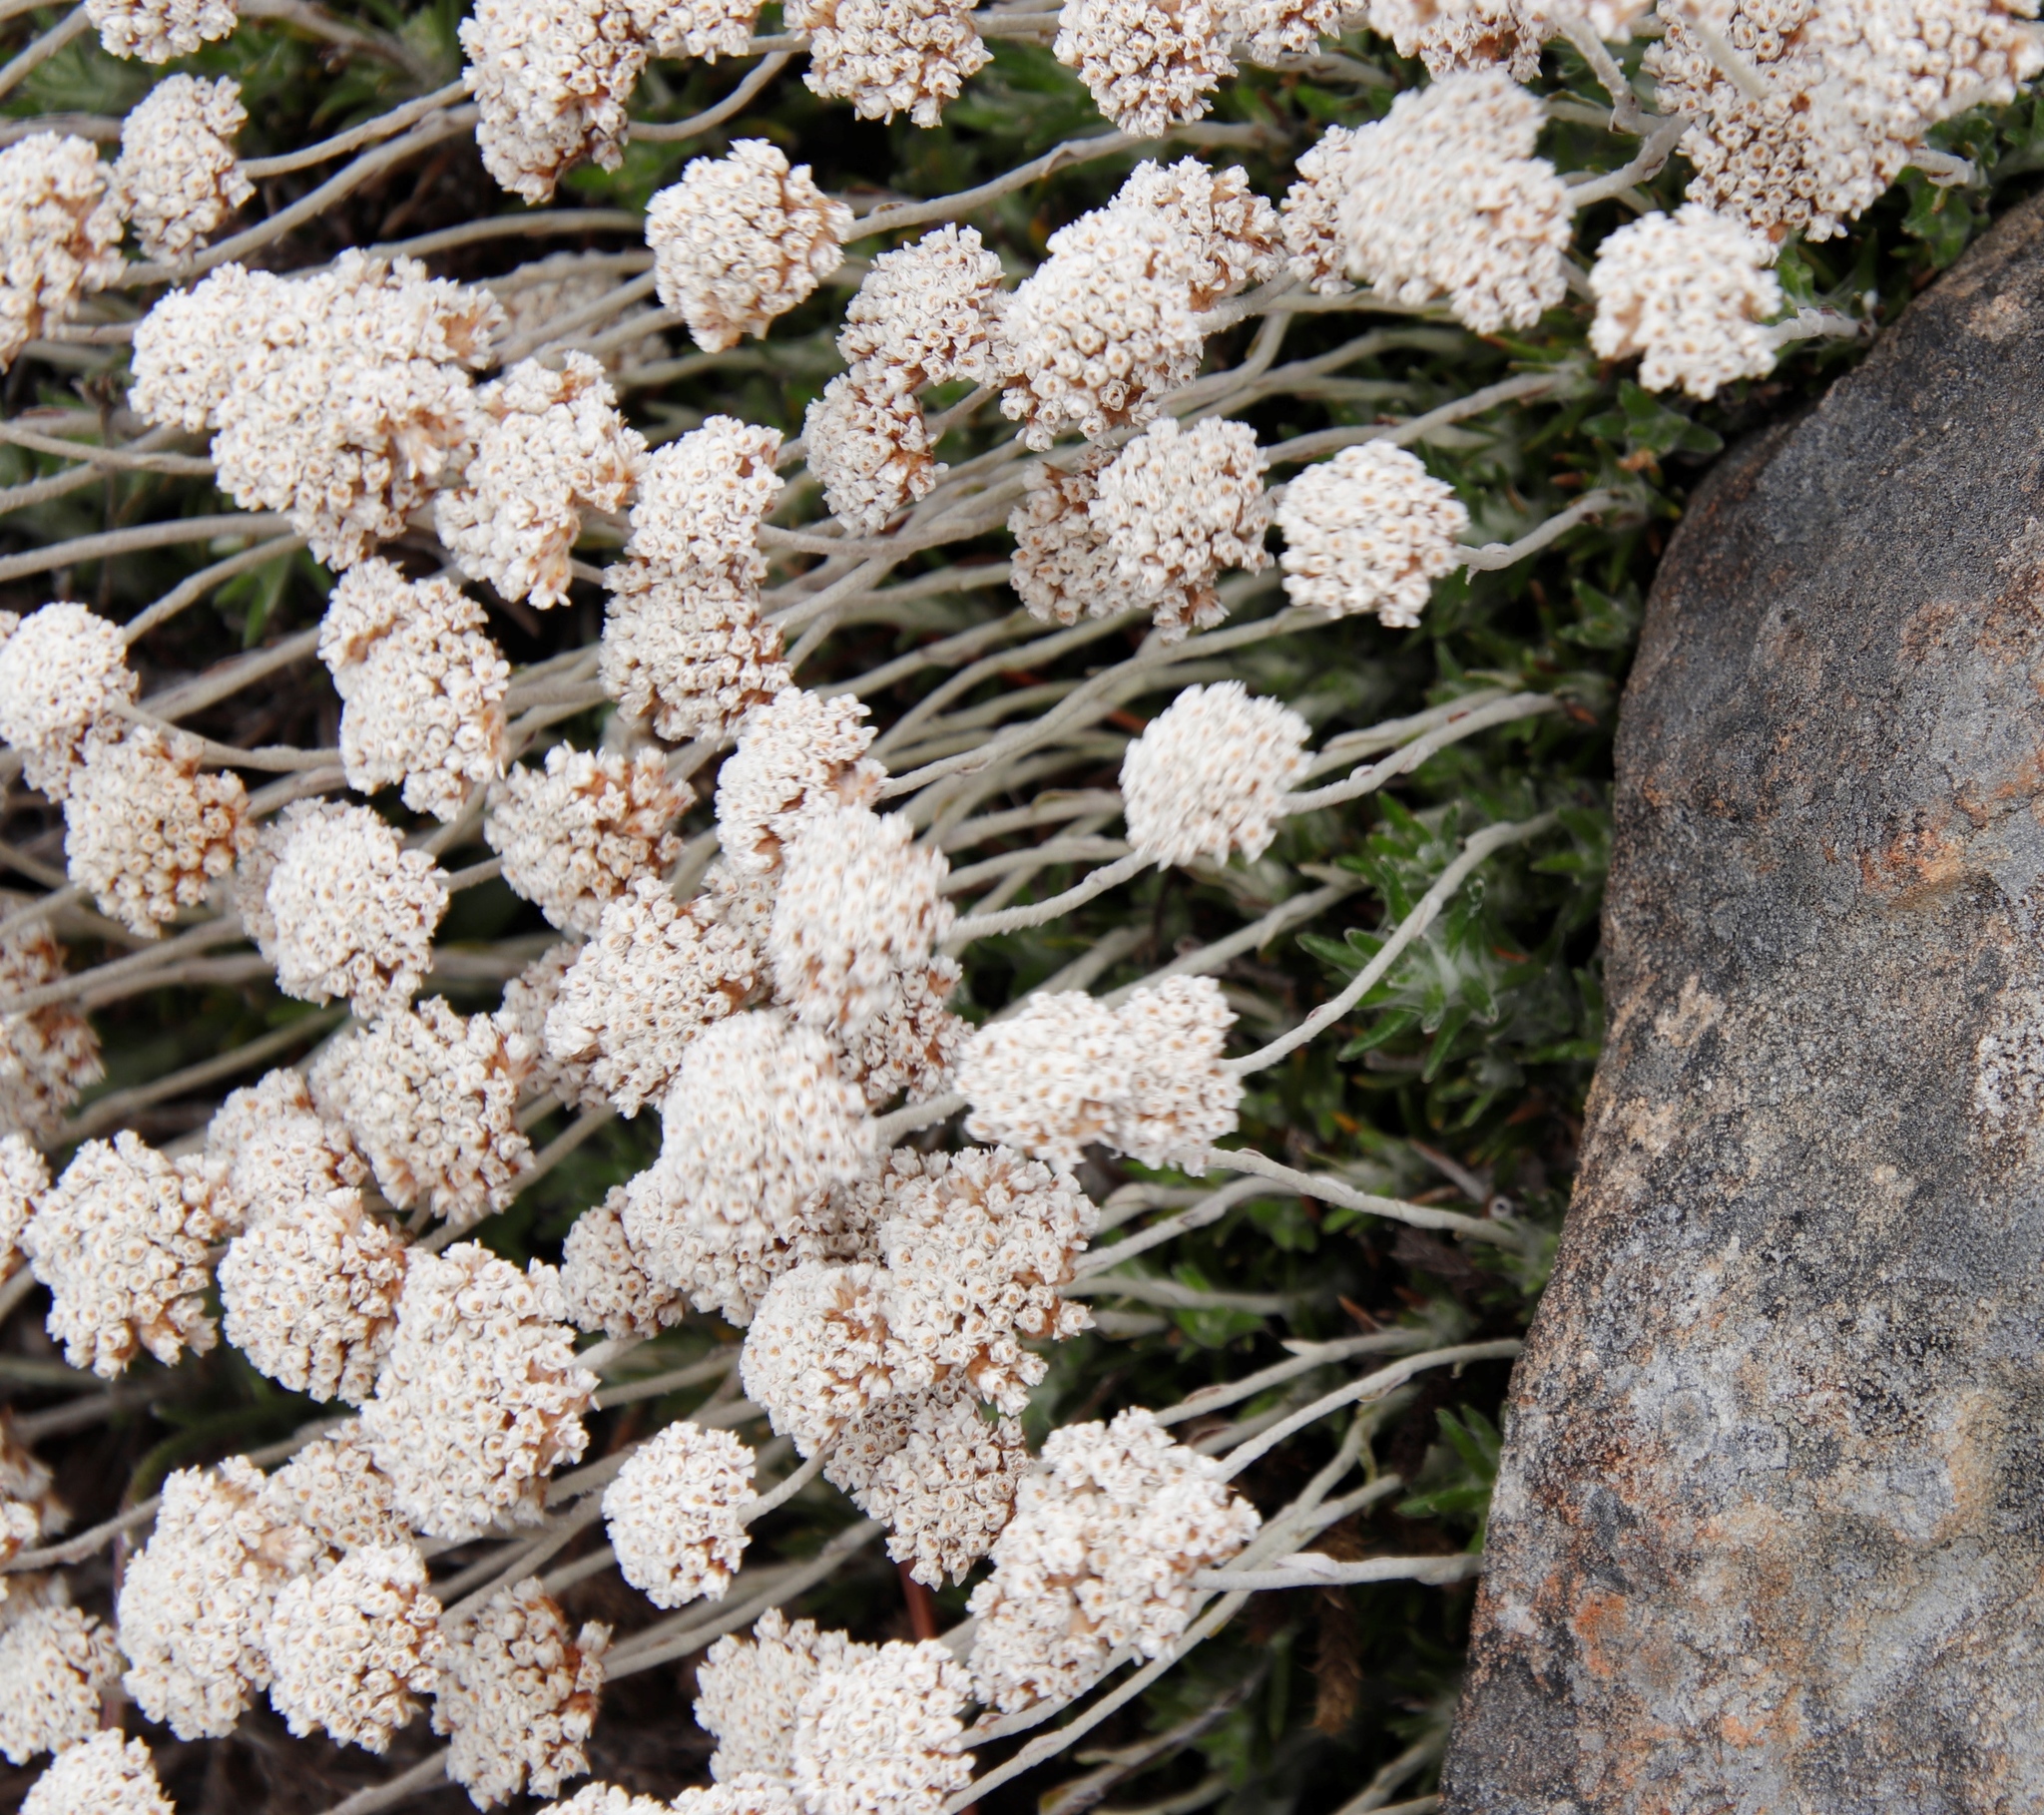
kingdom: Plantae
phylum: Tracheophyta
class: Magnoliopsida
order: Asterales
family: Asteraceae
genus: Anaxeton
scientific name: Anaxeton asperum
